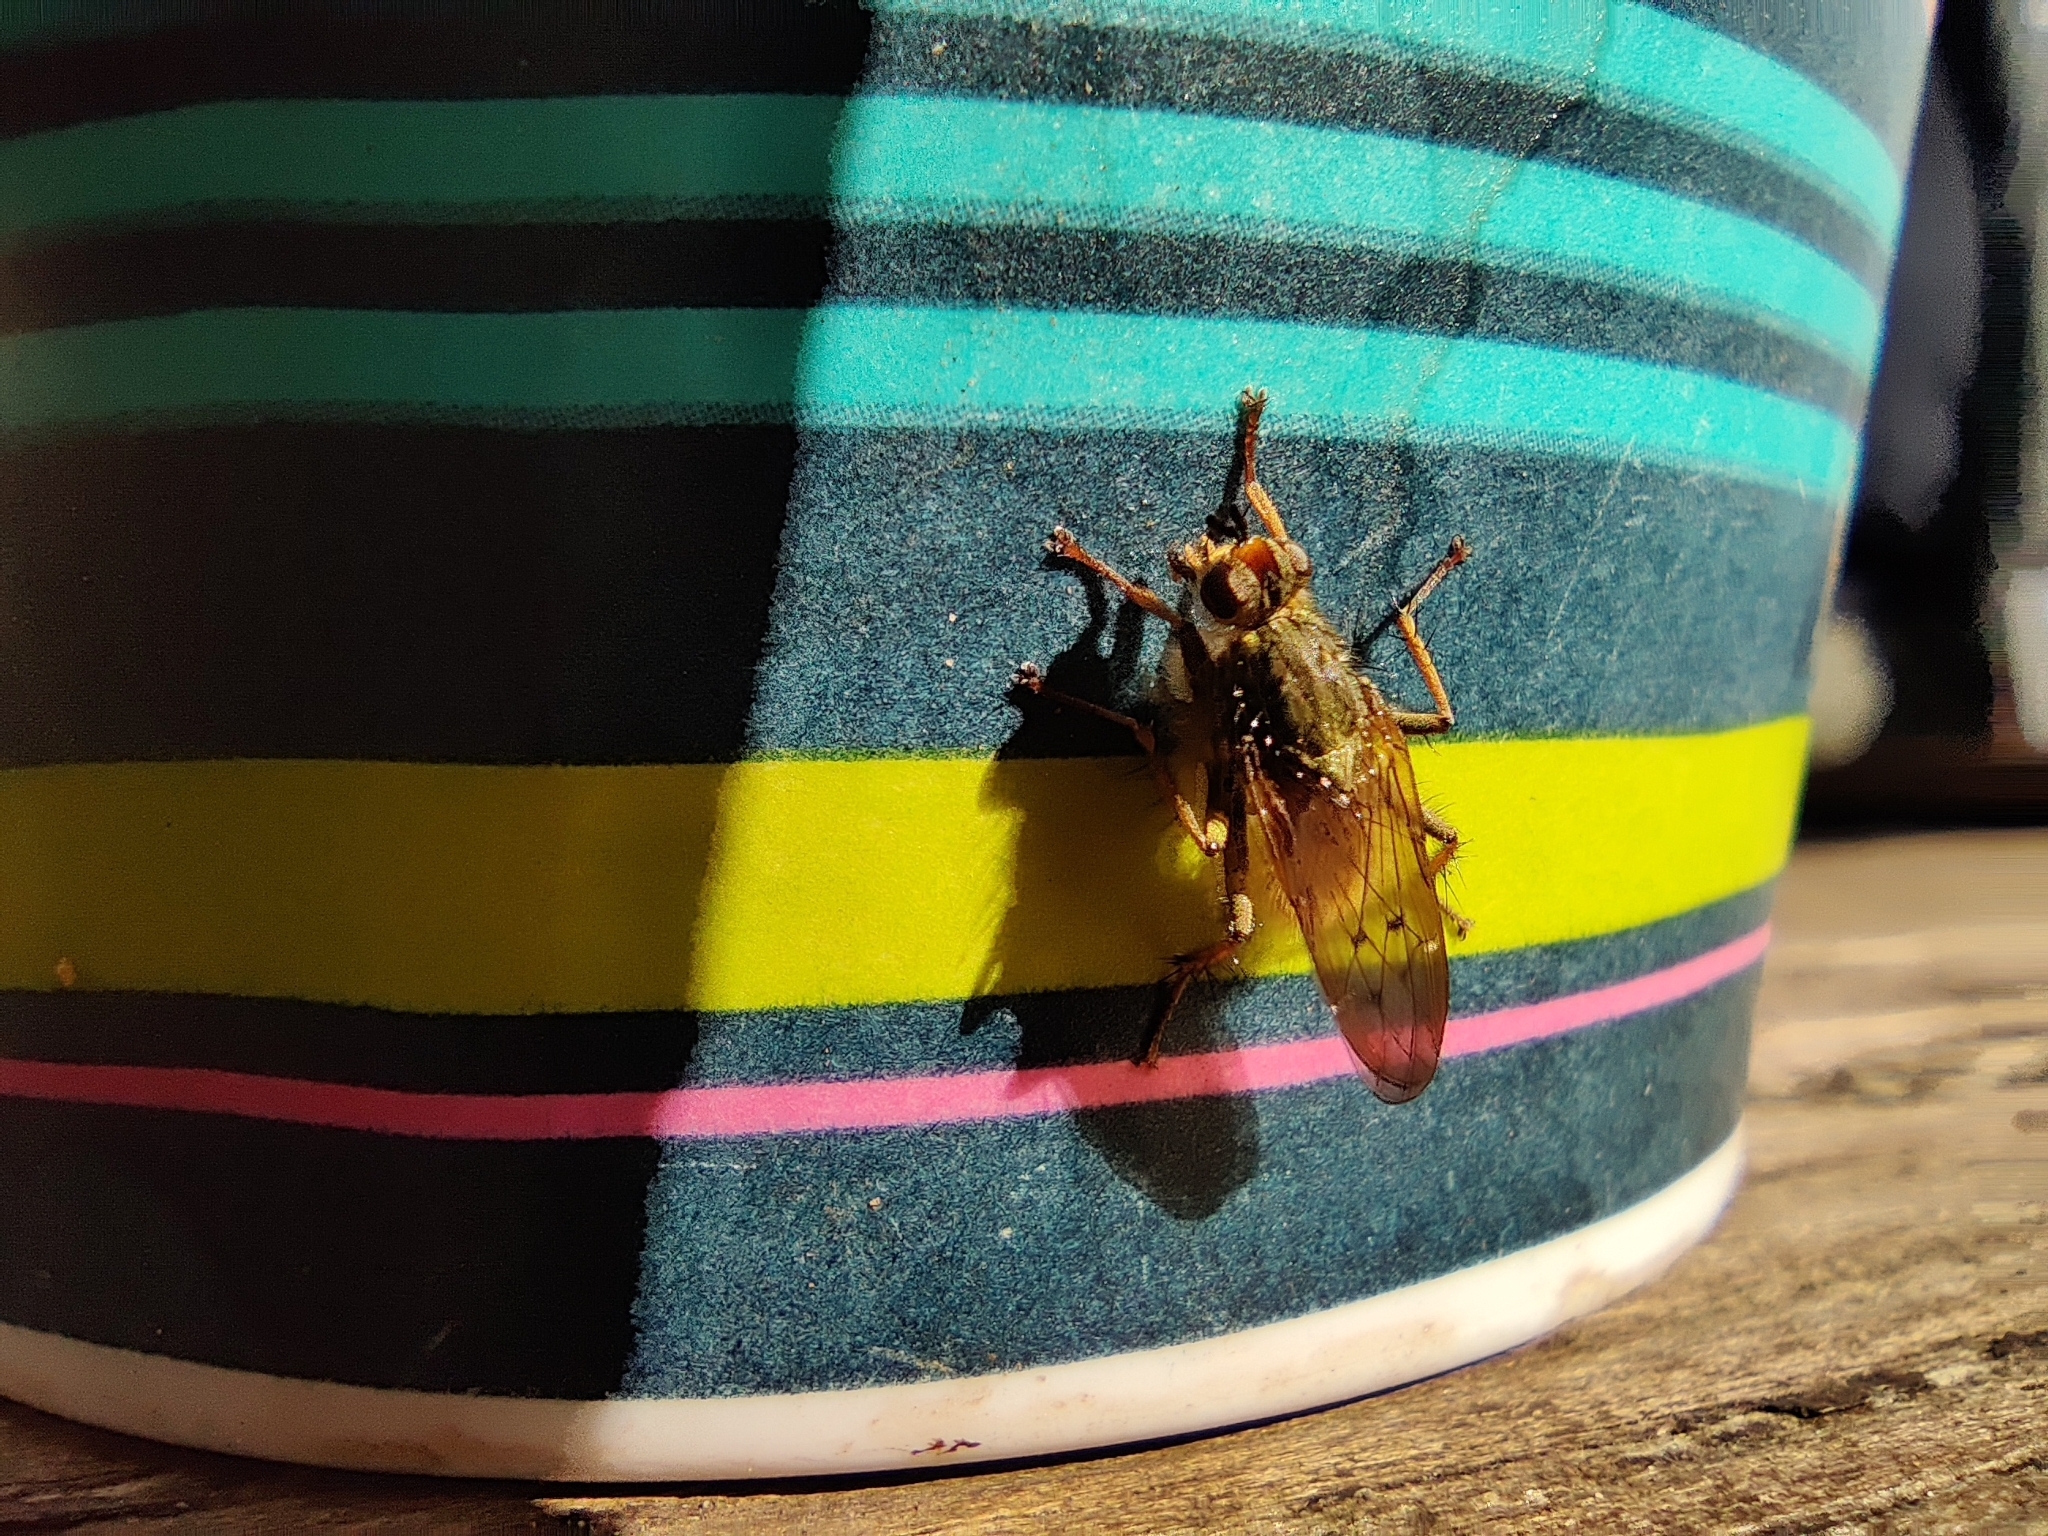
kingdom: Animalia
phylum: Arthropoda
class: Insecta
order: Diptera
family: Scathophagidae
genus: Scathophaga
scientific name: Scathophaga stercoraria
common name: Yellow dung fly
